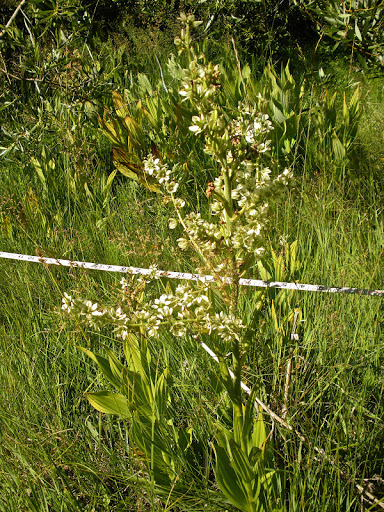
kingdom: Plantae
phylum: Tracheophyta
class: Liliopsida
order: Liliales
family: Melanthiaceae
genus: Veratrum
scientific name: Veratrum californicum
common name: California veratrum
